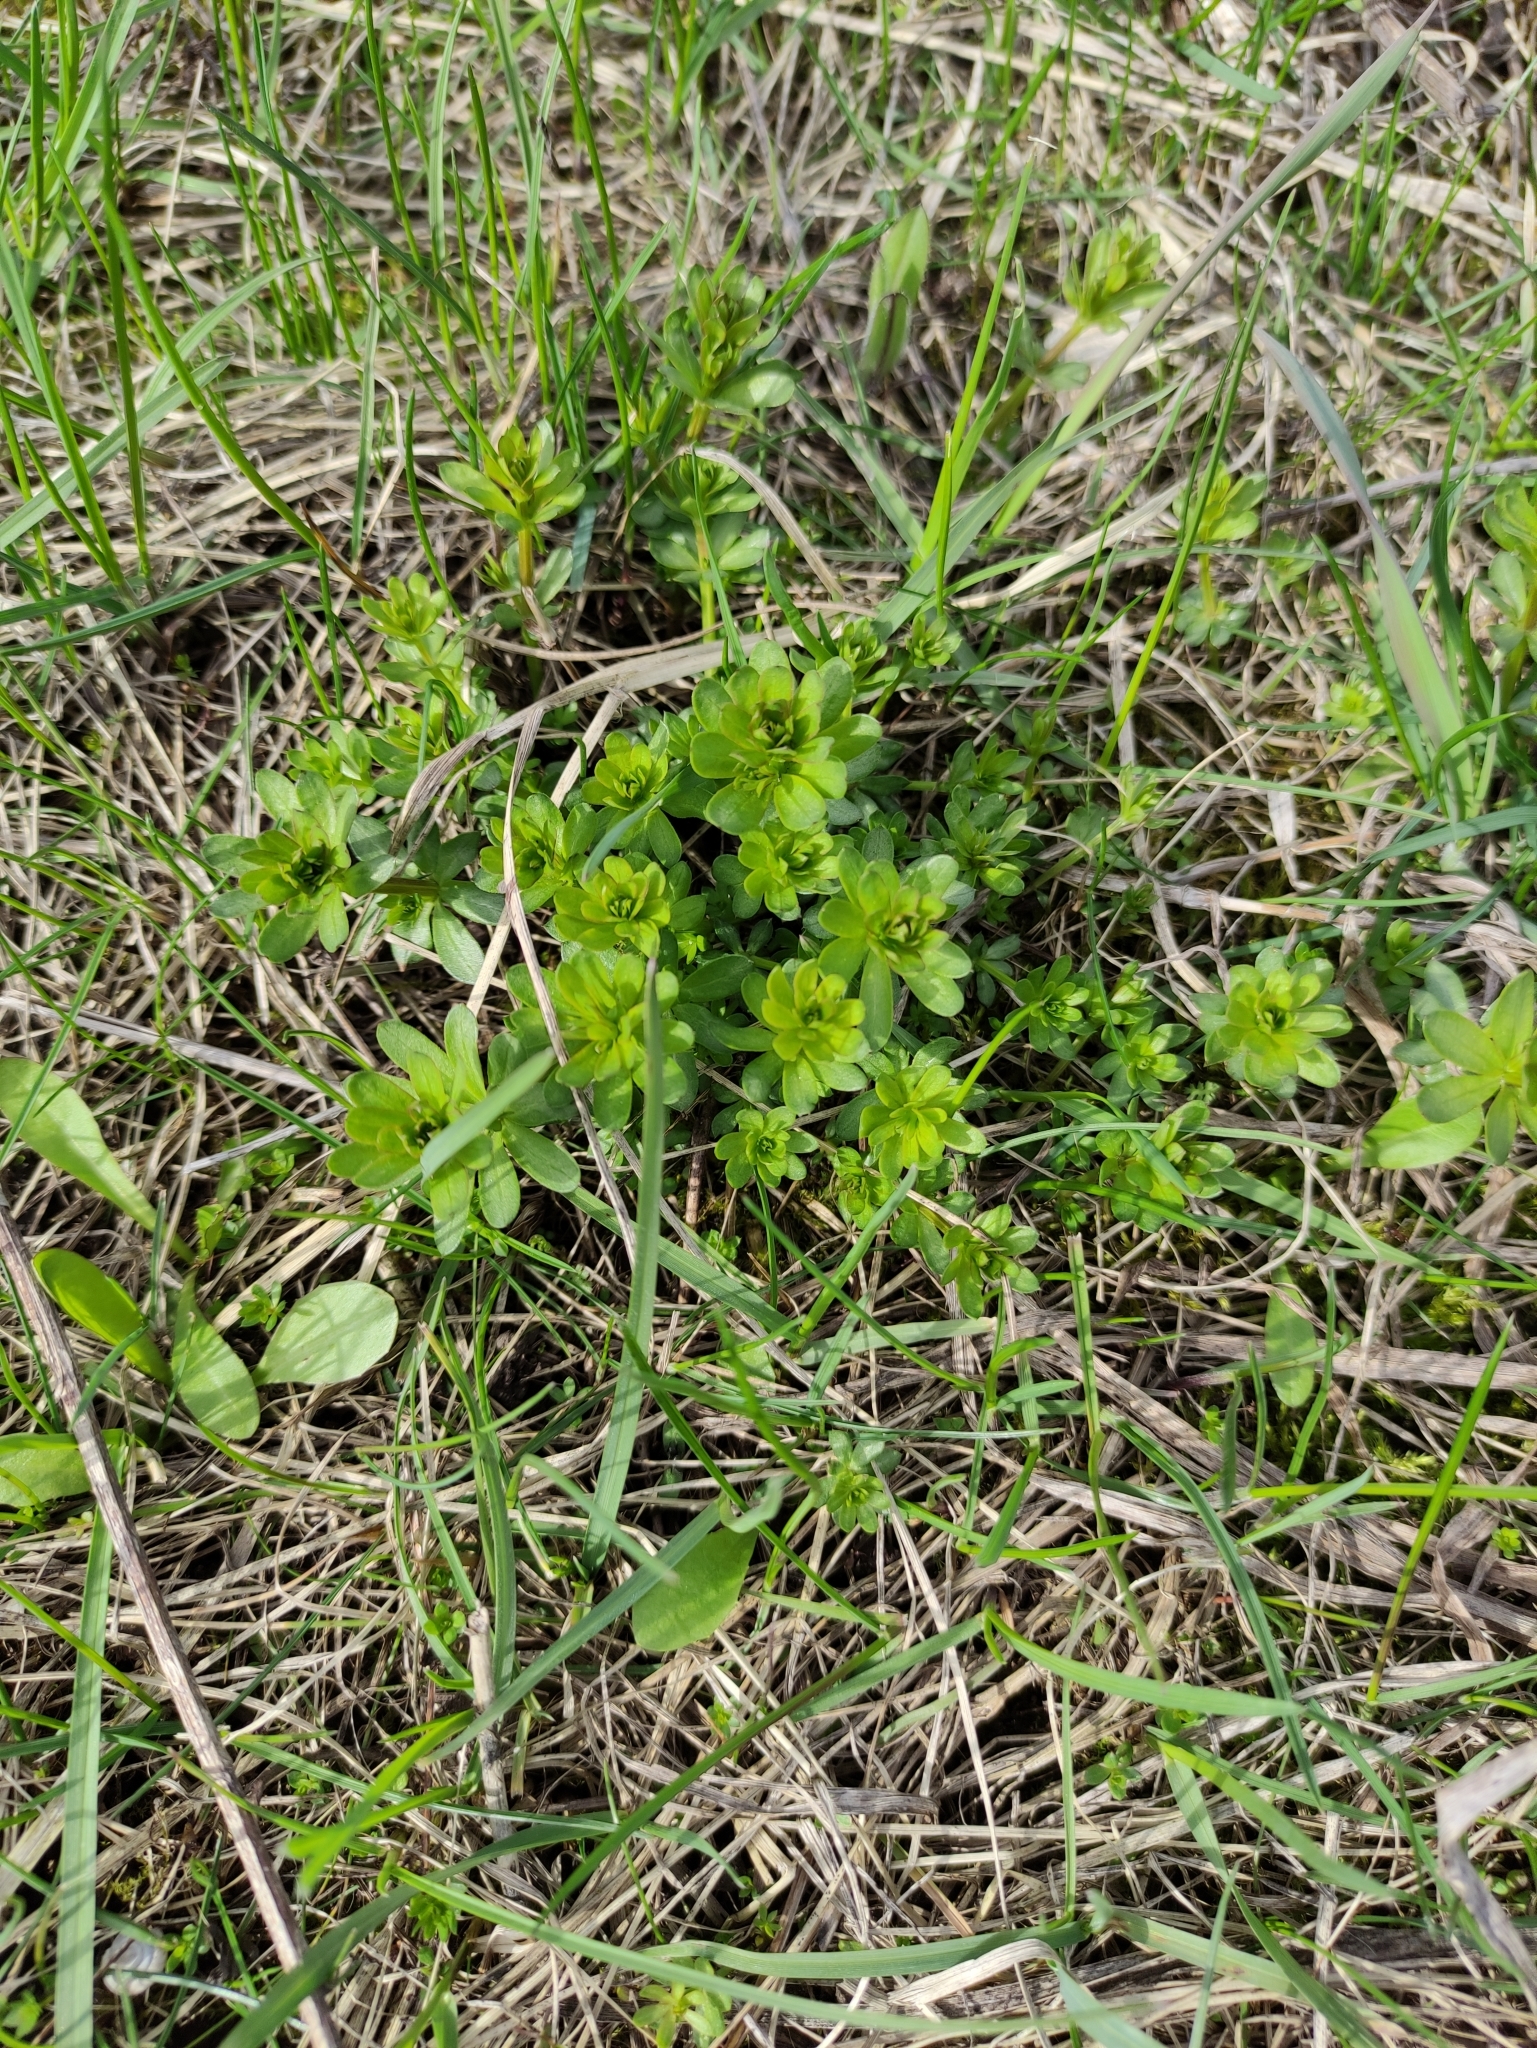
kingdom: Plantae
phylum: Tracheophyta
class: Magnoliopsida
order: Gentianales
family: Rubiaceae
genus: Galium
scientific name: Galium mollugo
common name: Hedge bedstraw
